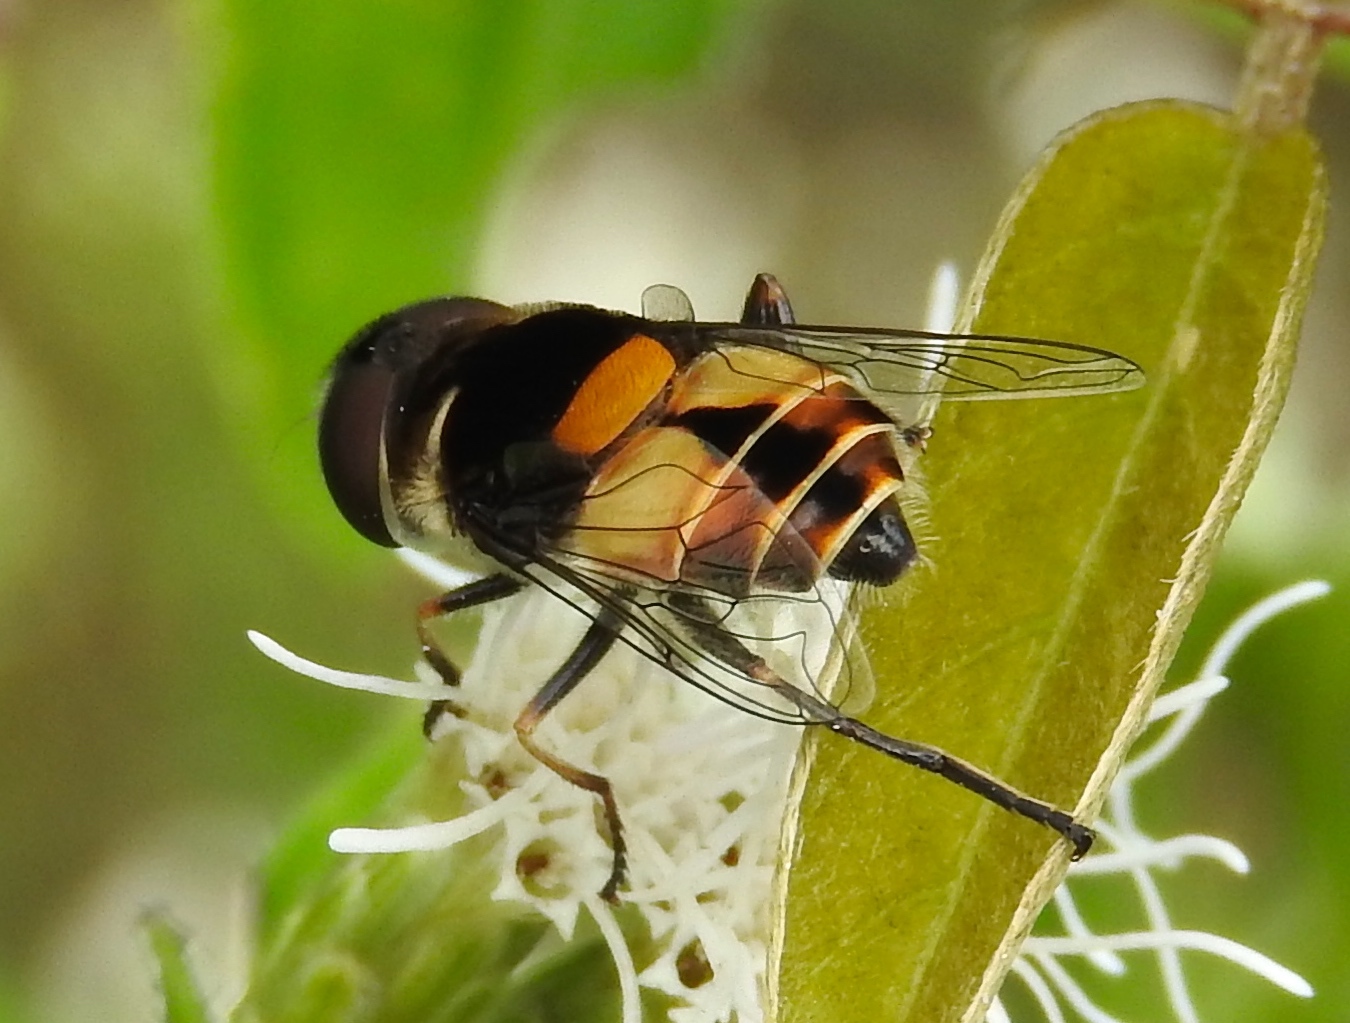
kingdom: Animalia
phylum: Arthropoda
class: Insecta
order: Diptera
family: Syrphidae
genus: Palpada
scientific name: Palpada
